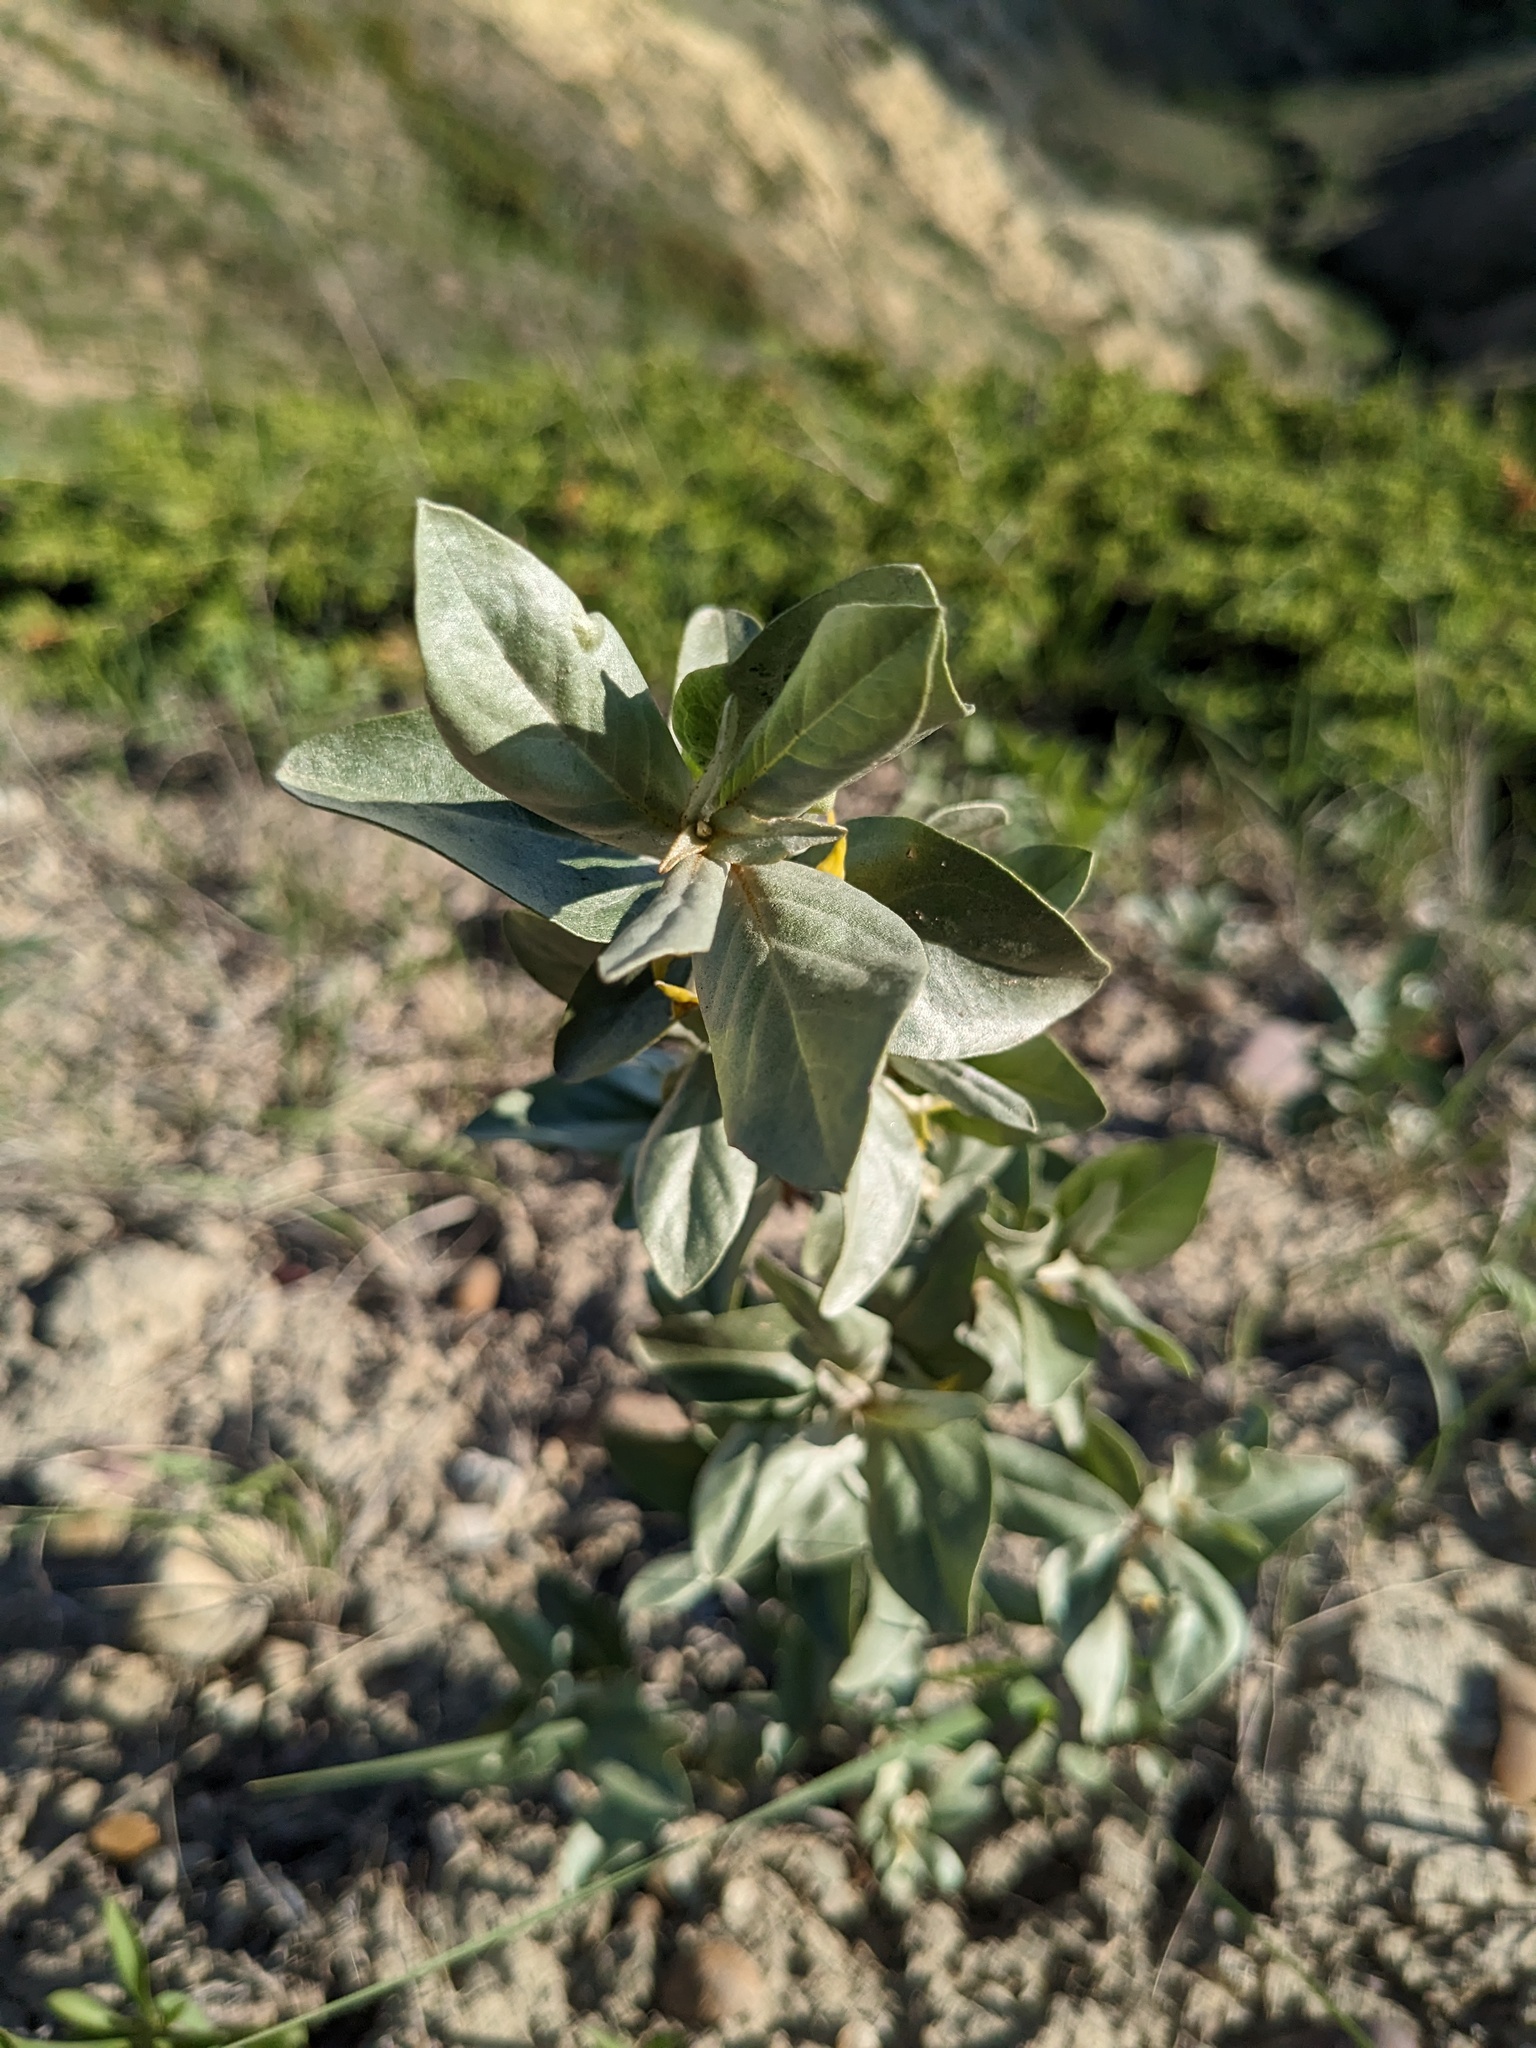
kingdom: Plantae
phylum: Tracheophyta
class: Magnoliopsida
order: Rosales
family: Elaeagnaceae
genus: Elaeagnus
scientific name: Elaeagnus commutata
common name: Silverberry
